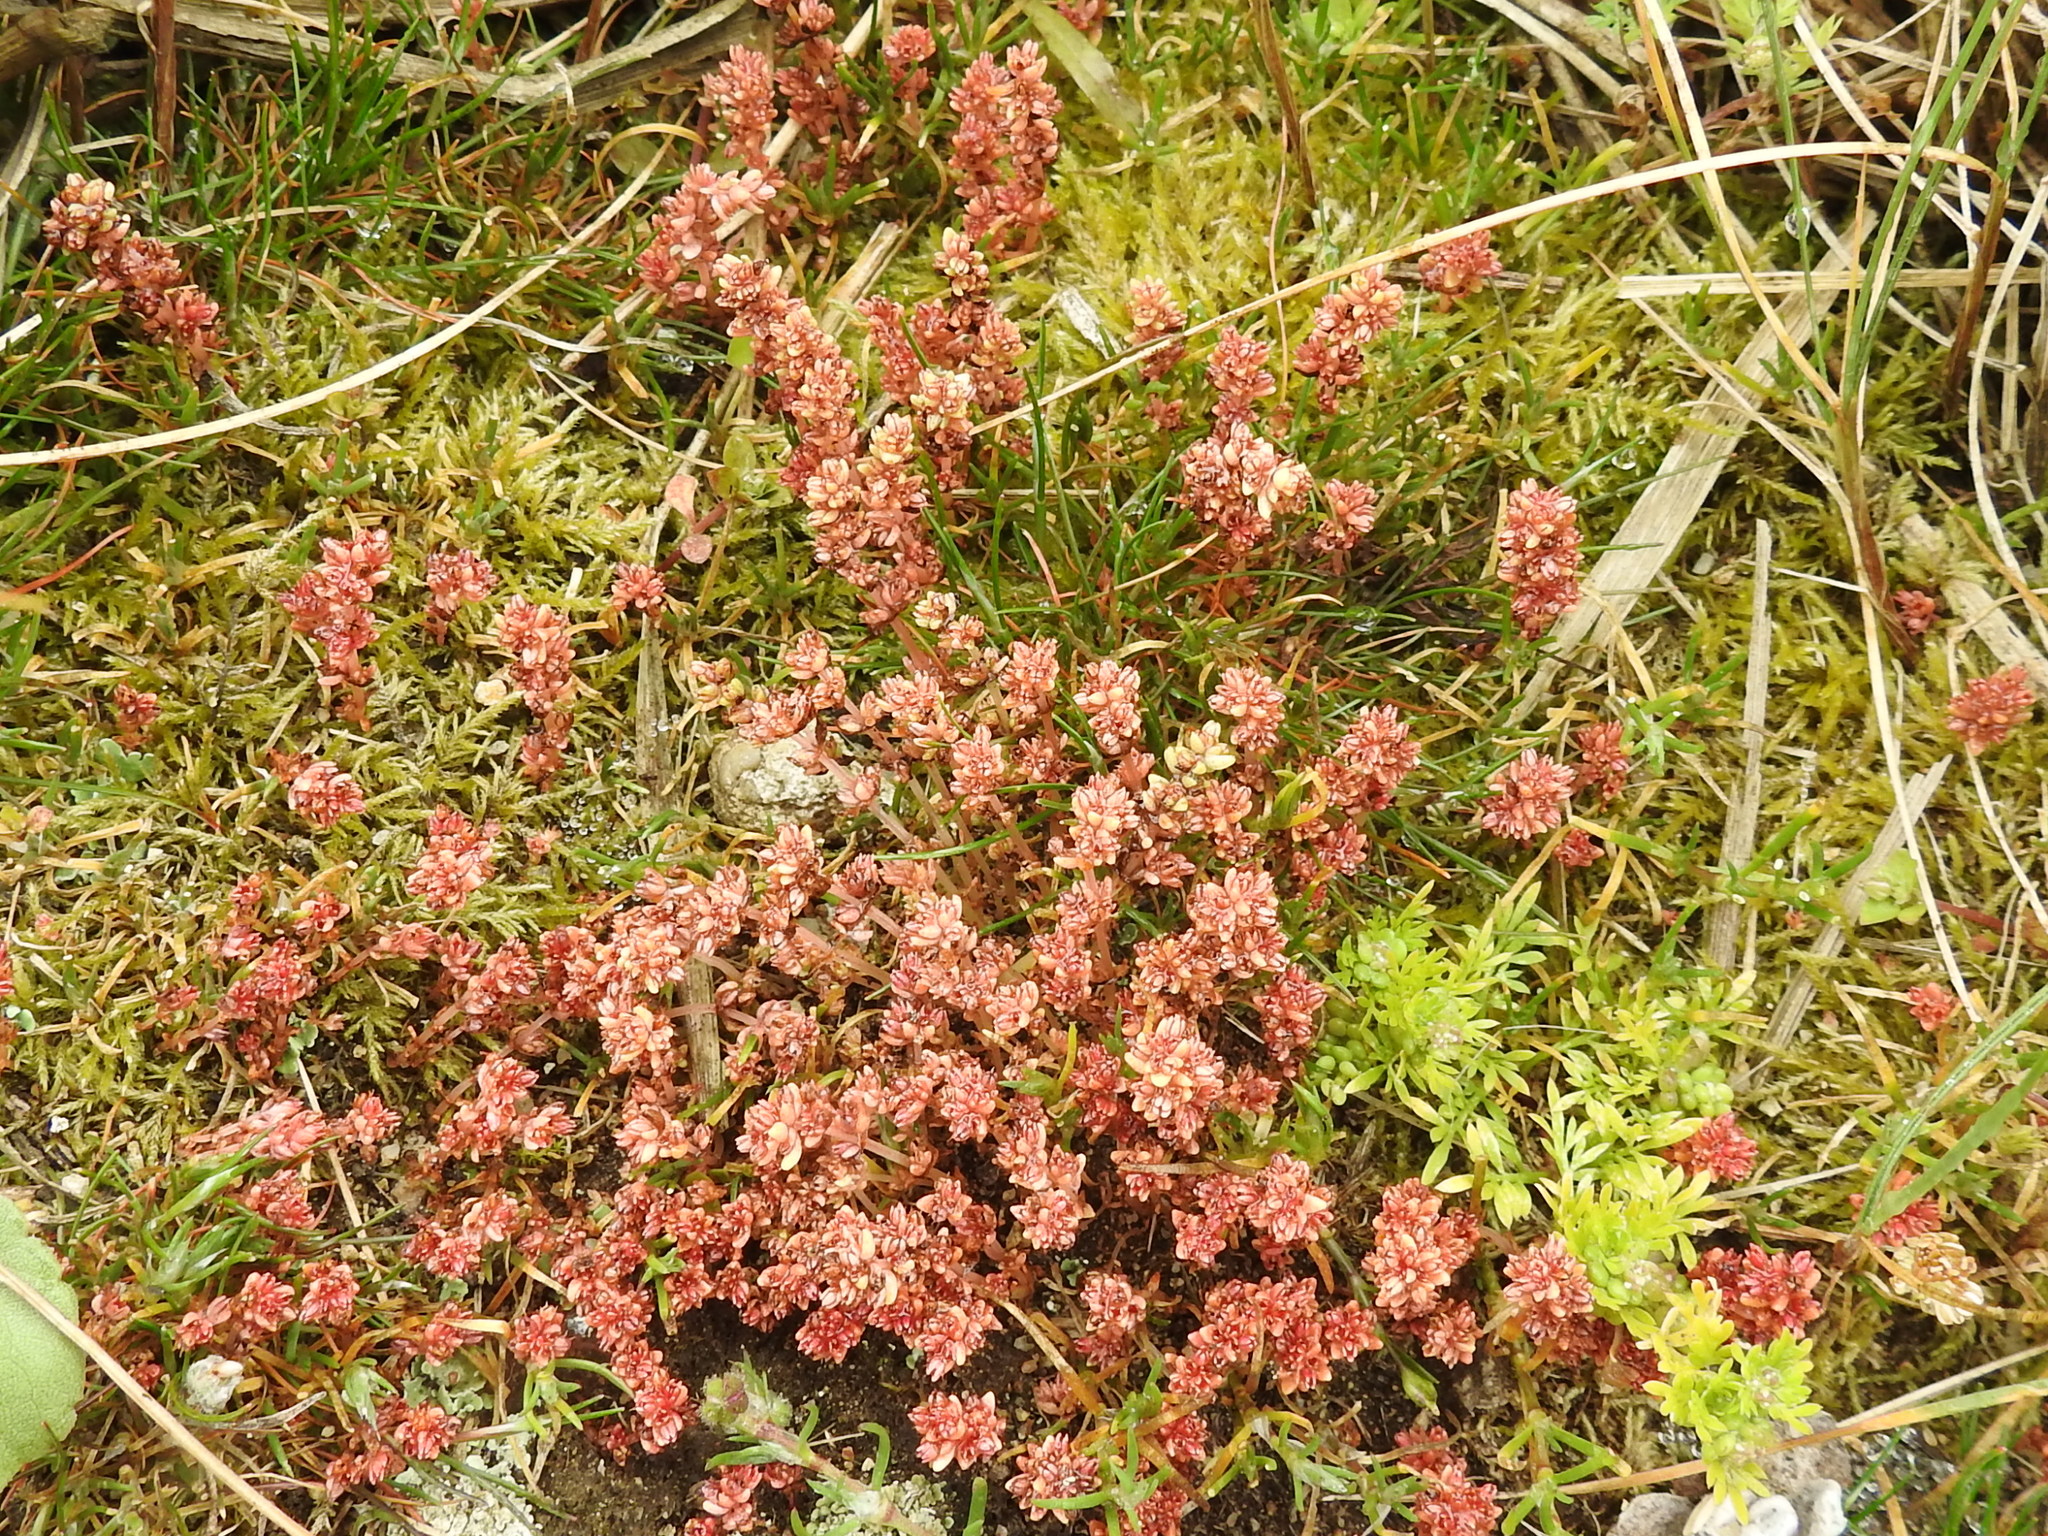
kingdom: Plantae
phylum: Tracheophyta
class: Magnoliopsida
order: Saxifragales
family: Crassulaceae
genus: Crassula
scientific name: Crassula connata
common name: Erect pygmyweed
